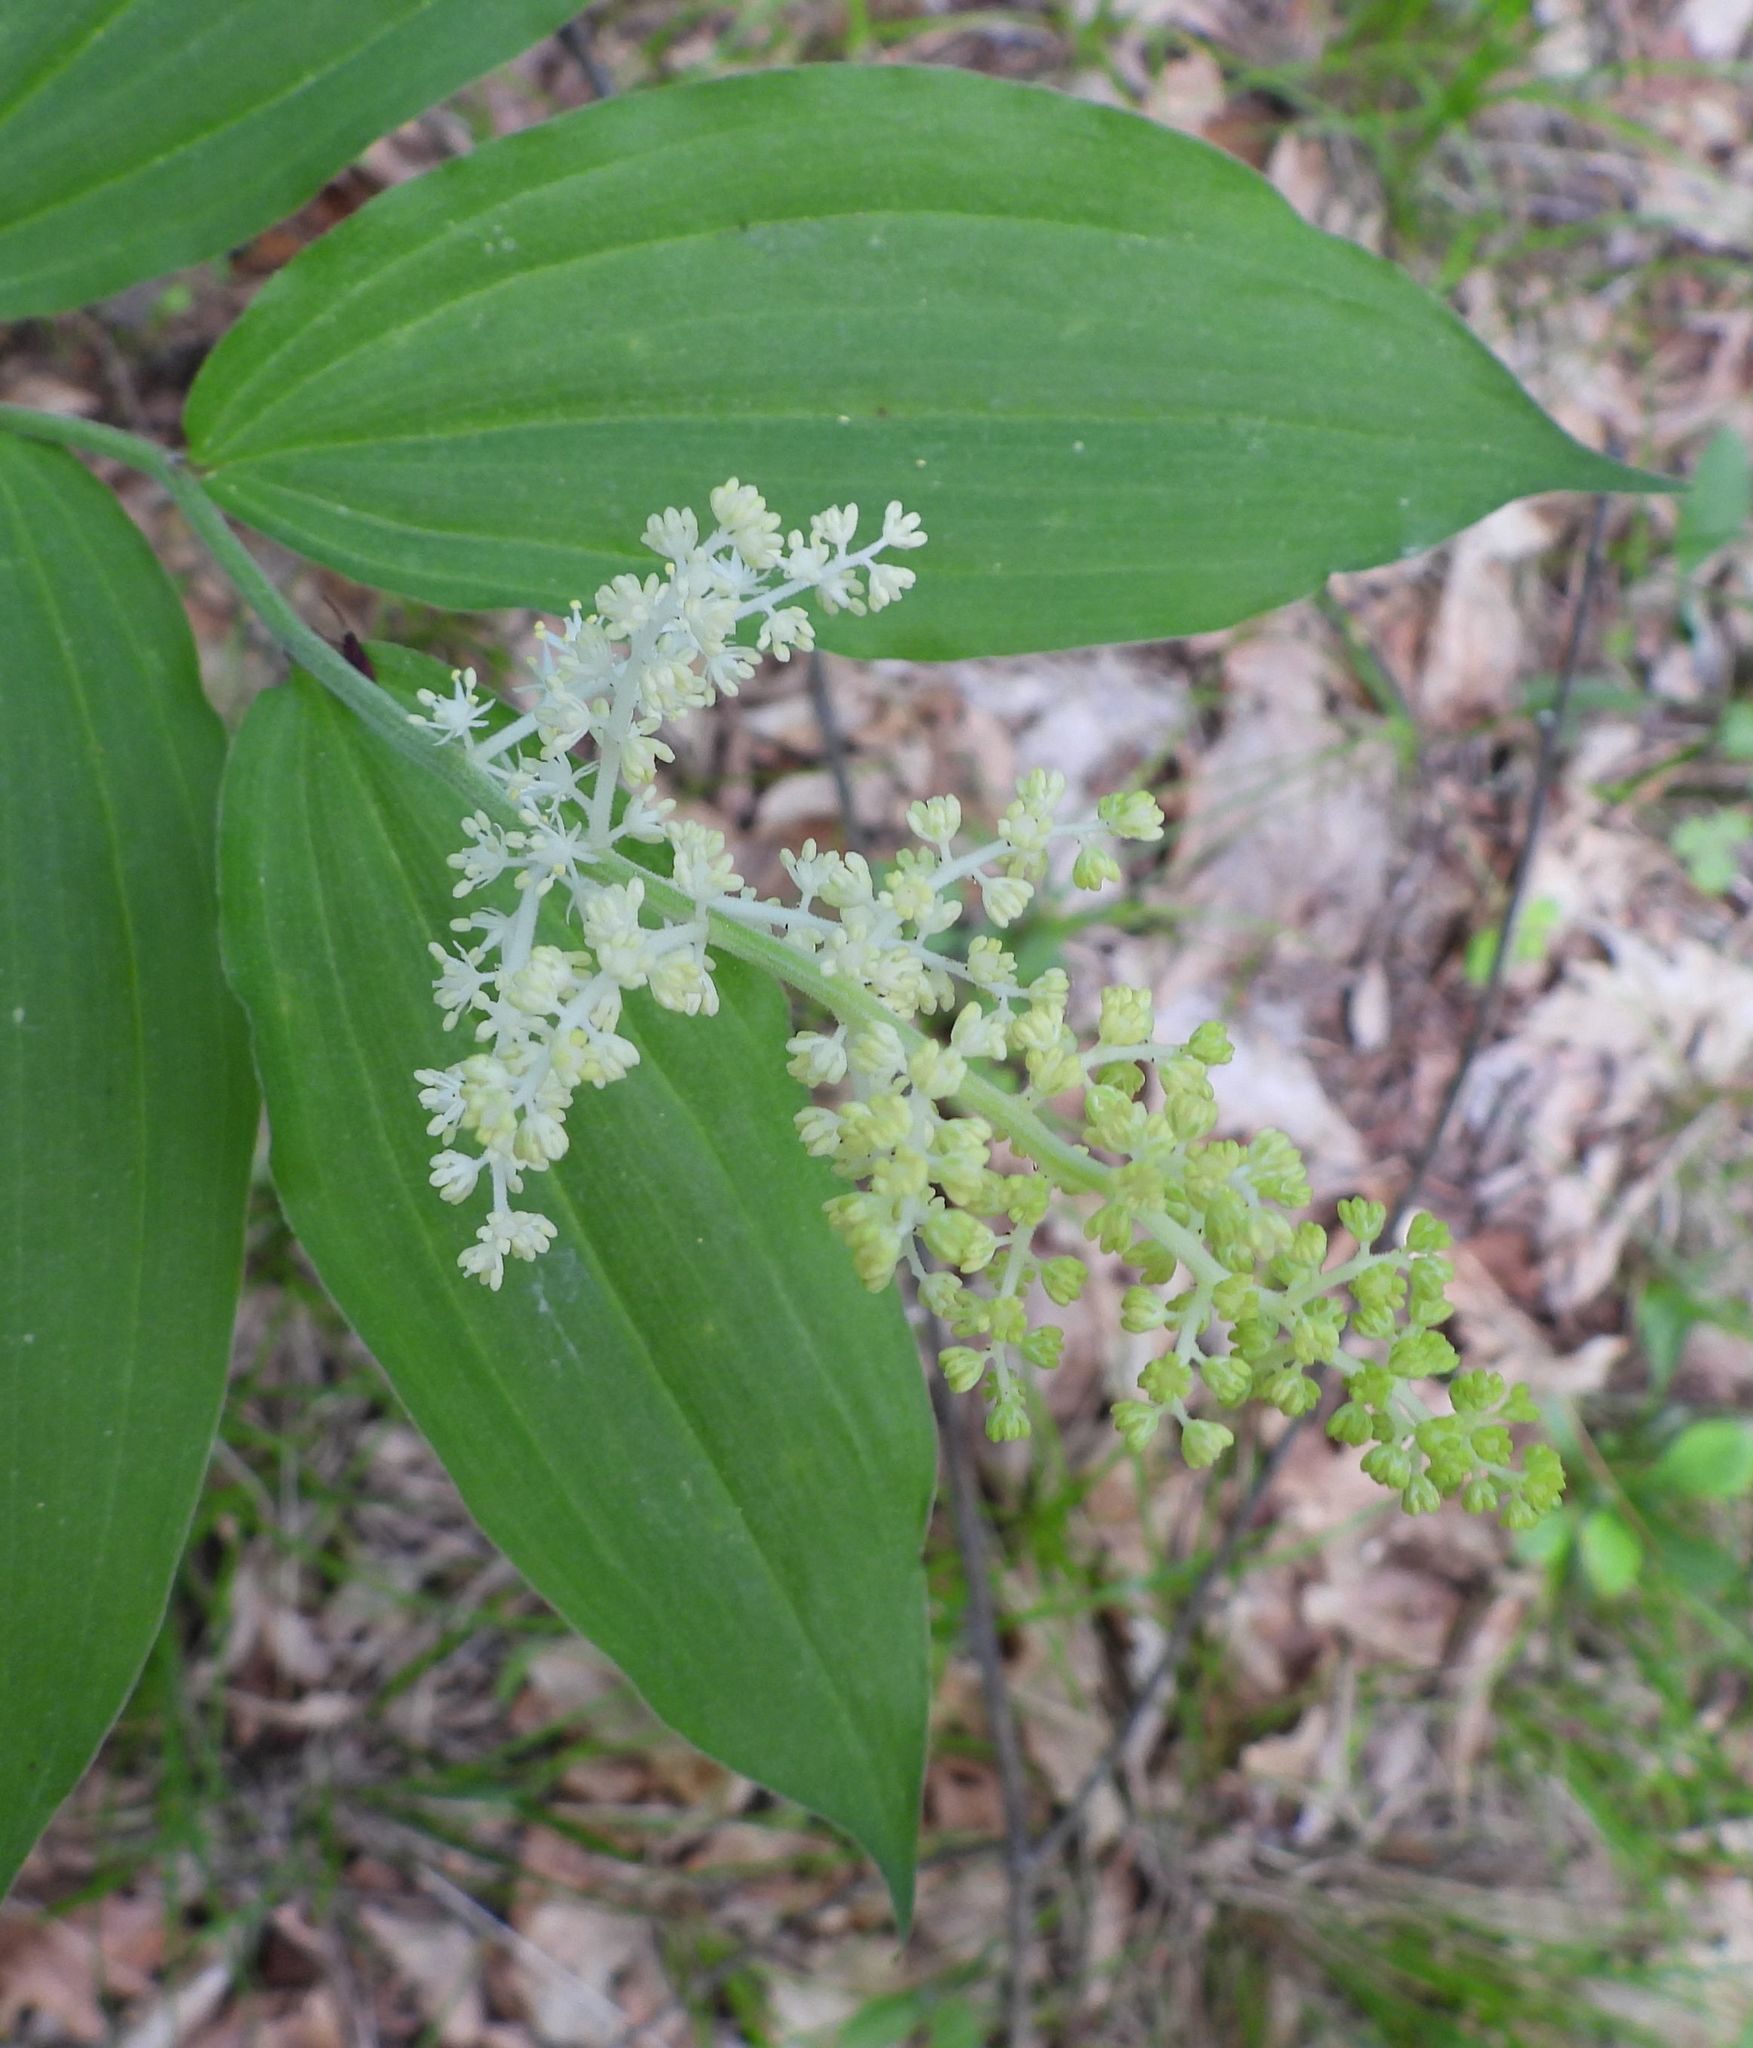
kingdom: Plantae
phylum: Tracheophyta
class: Liliopsida
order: Asparagales
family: Asparagaceae
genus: Maianthemum
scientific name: Maianthemum racemosum
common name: False spikenard
